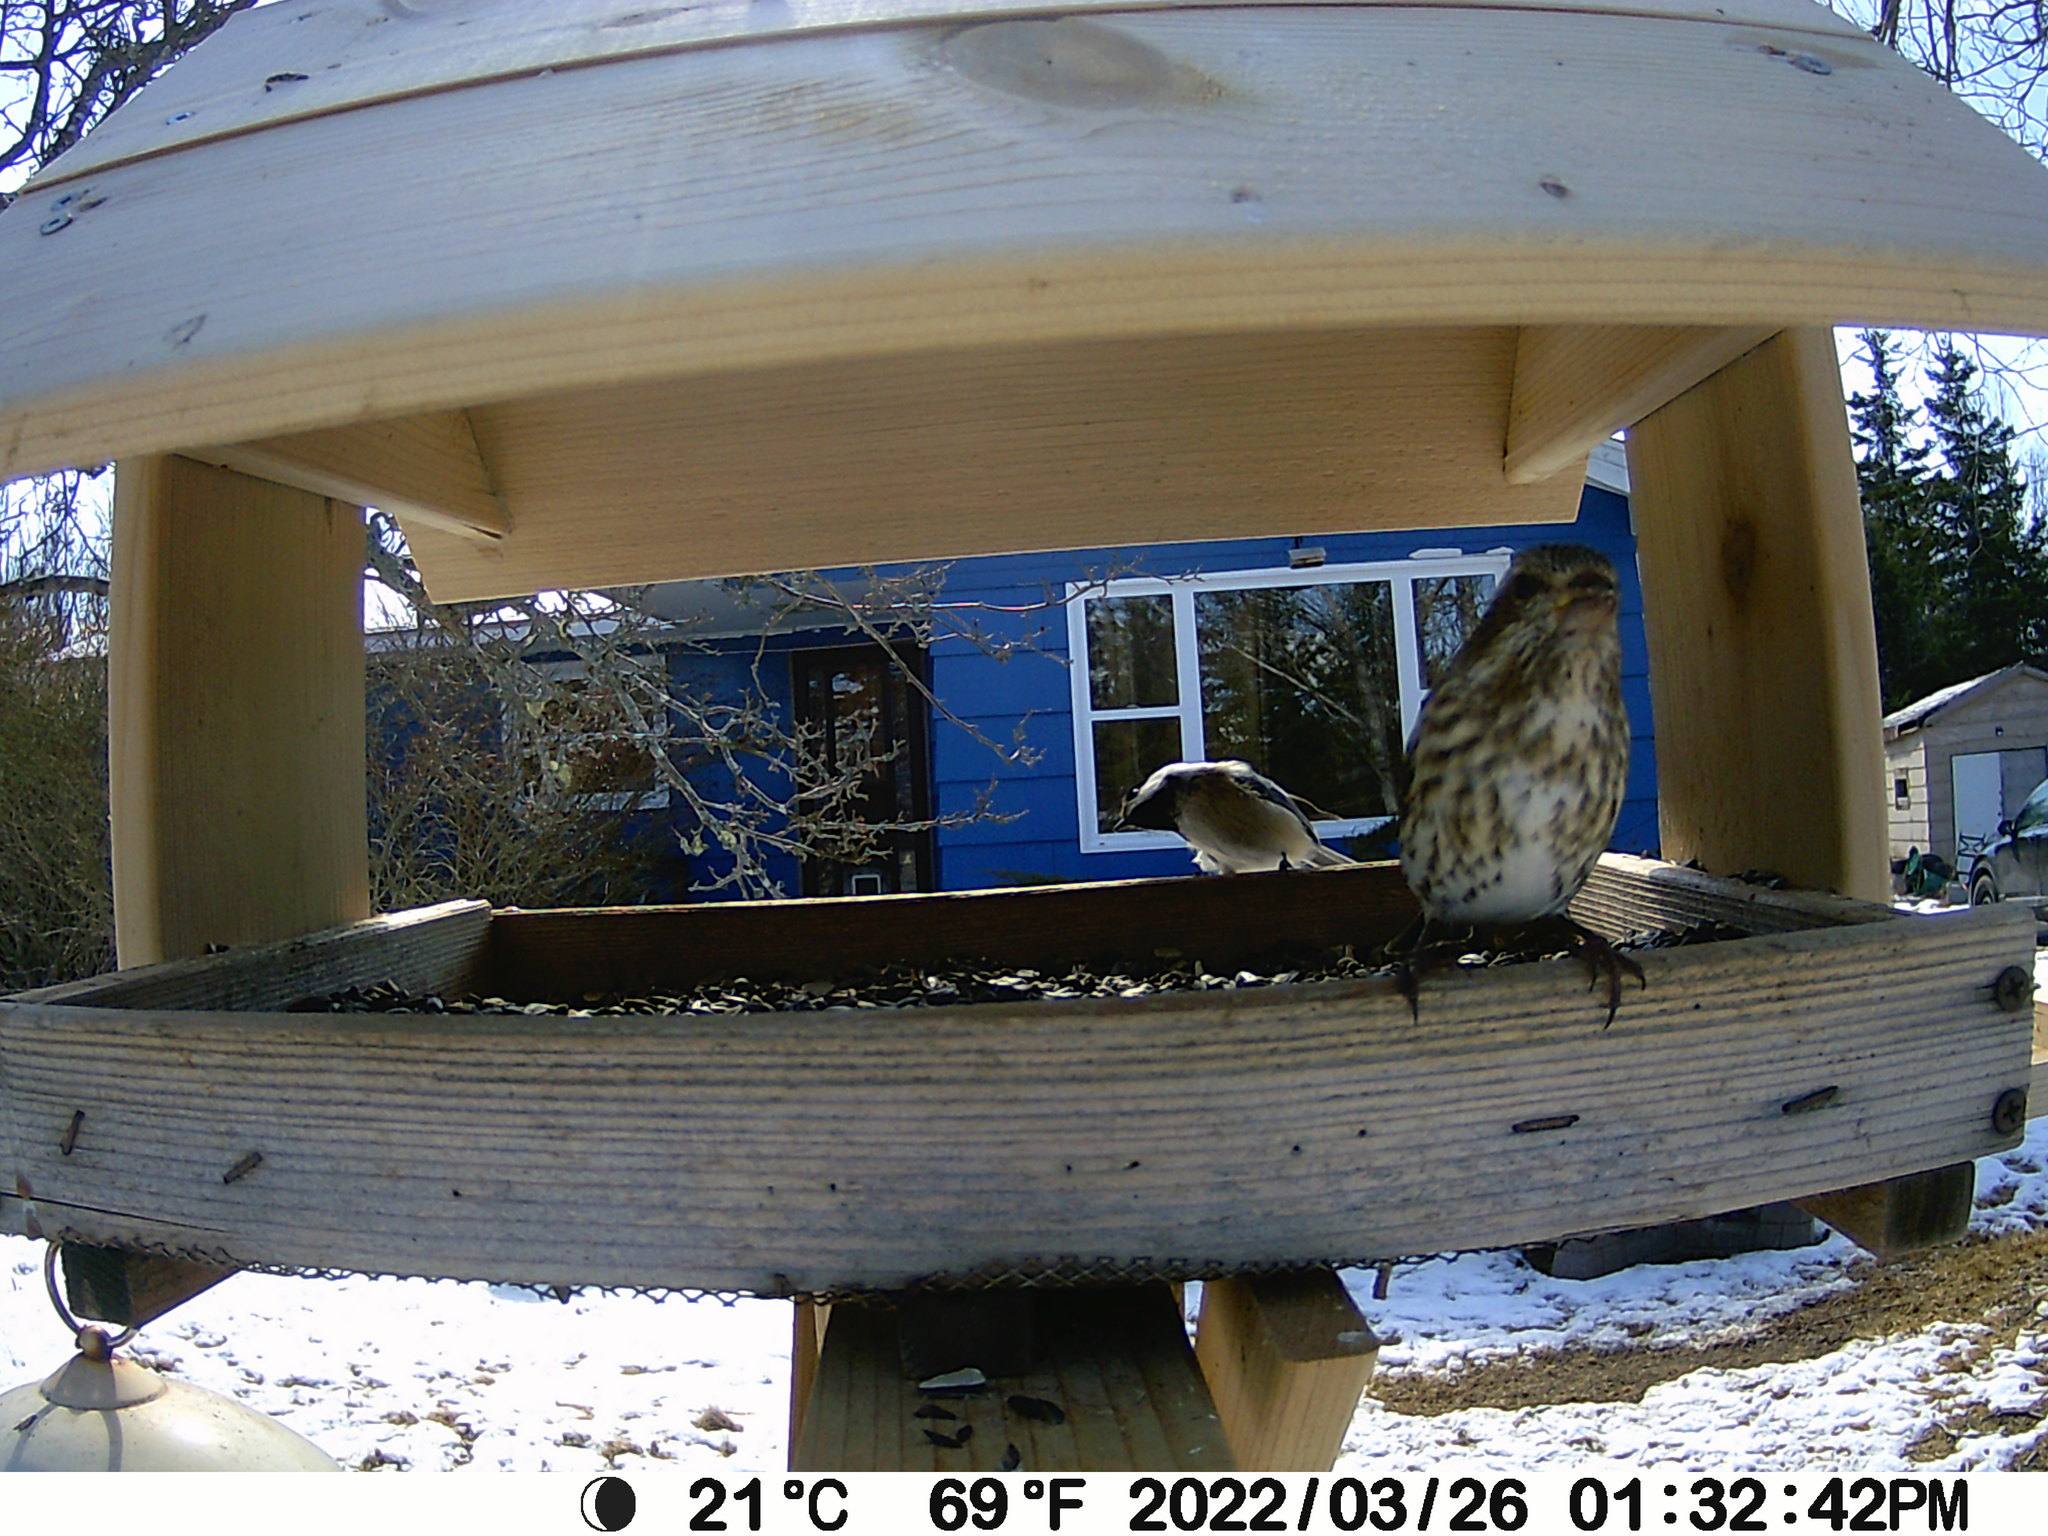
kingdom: Animalia
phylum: Chordata
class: Aves
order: Passeriformes
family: Fringillidae
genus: Haemorhous
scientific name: Haemorhous purpureus
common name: Purple finch
